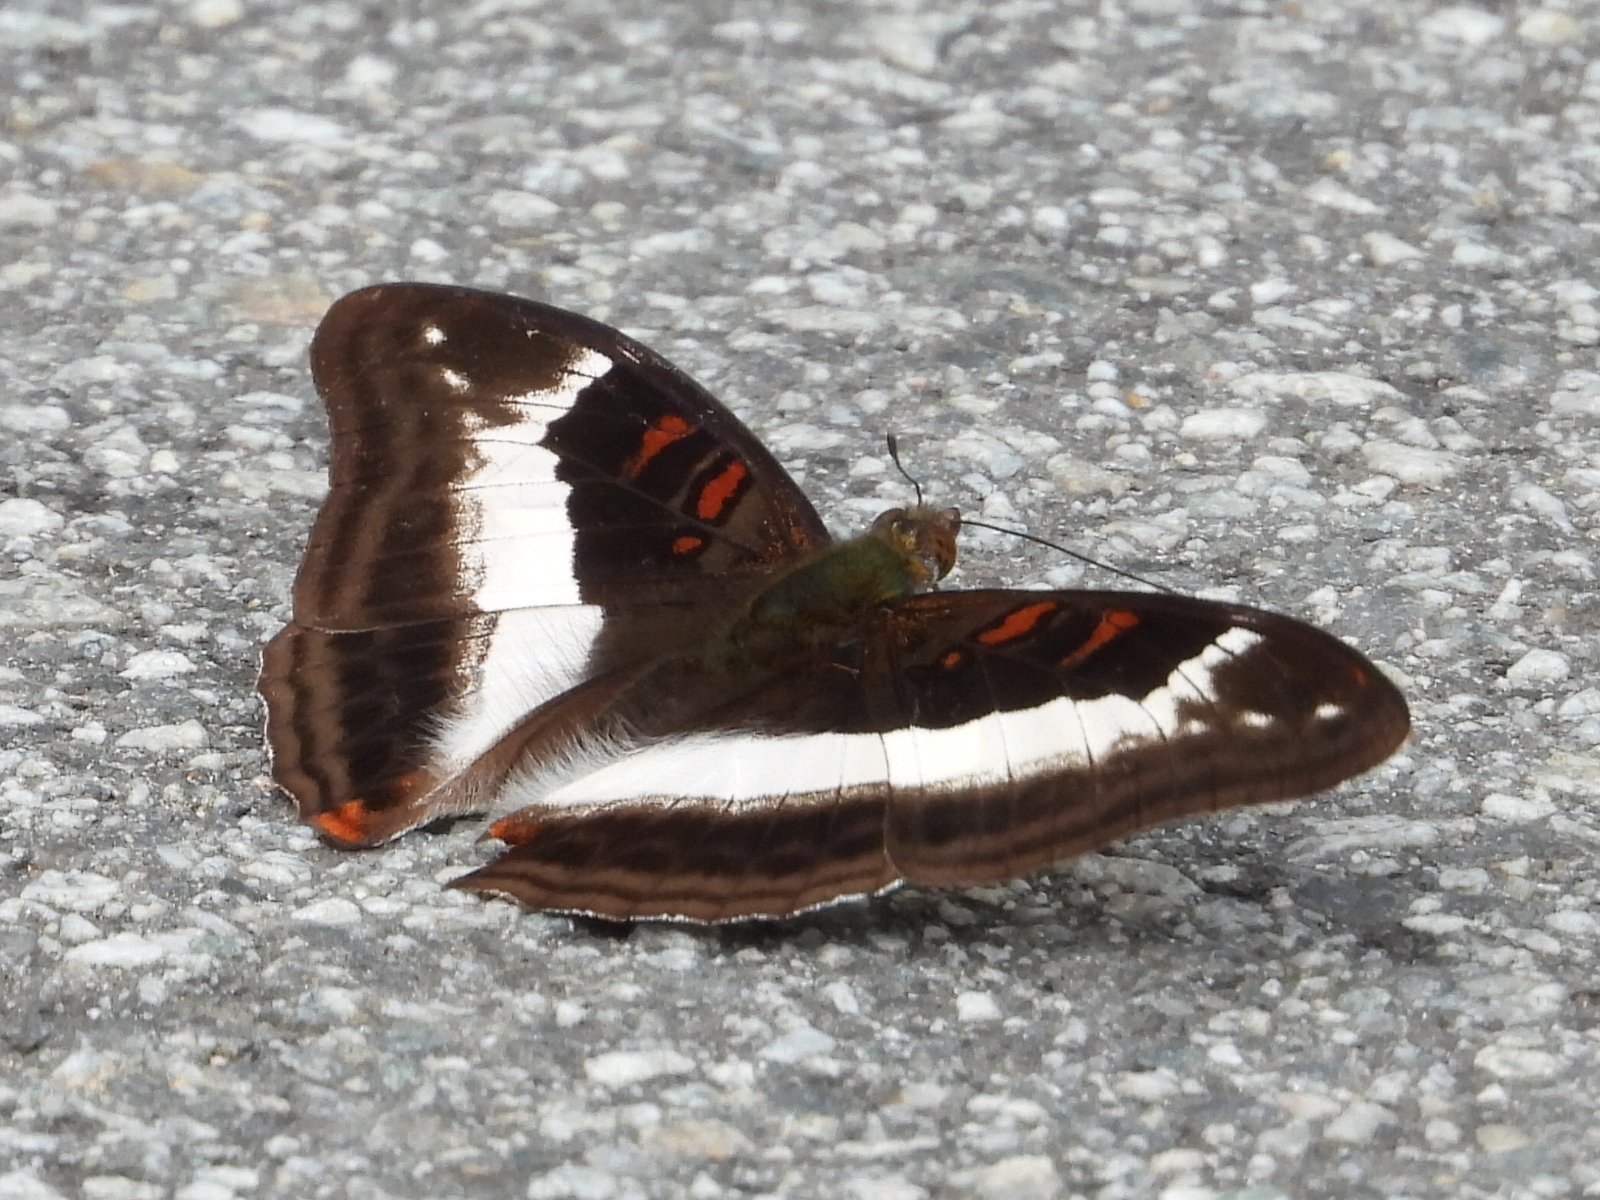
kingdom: Animalia
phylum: Arthropoda
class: Insecta
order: Lepidoptera
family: Nymphalidae
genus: Limenitis
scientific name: Limenitis Parasarpa dudu
